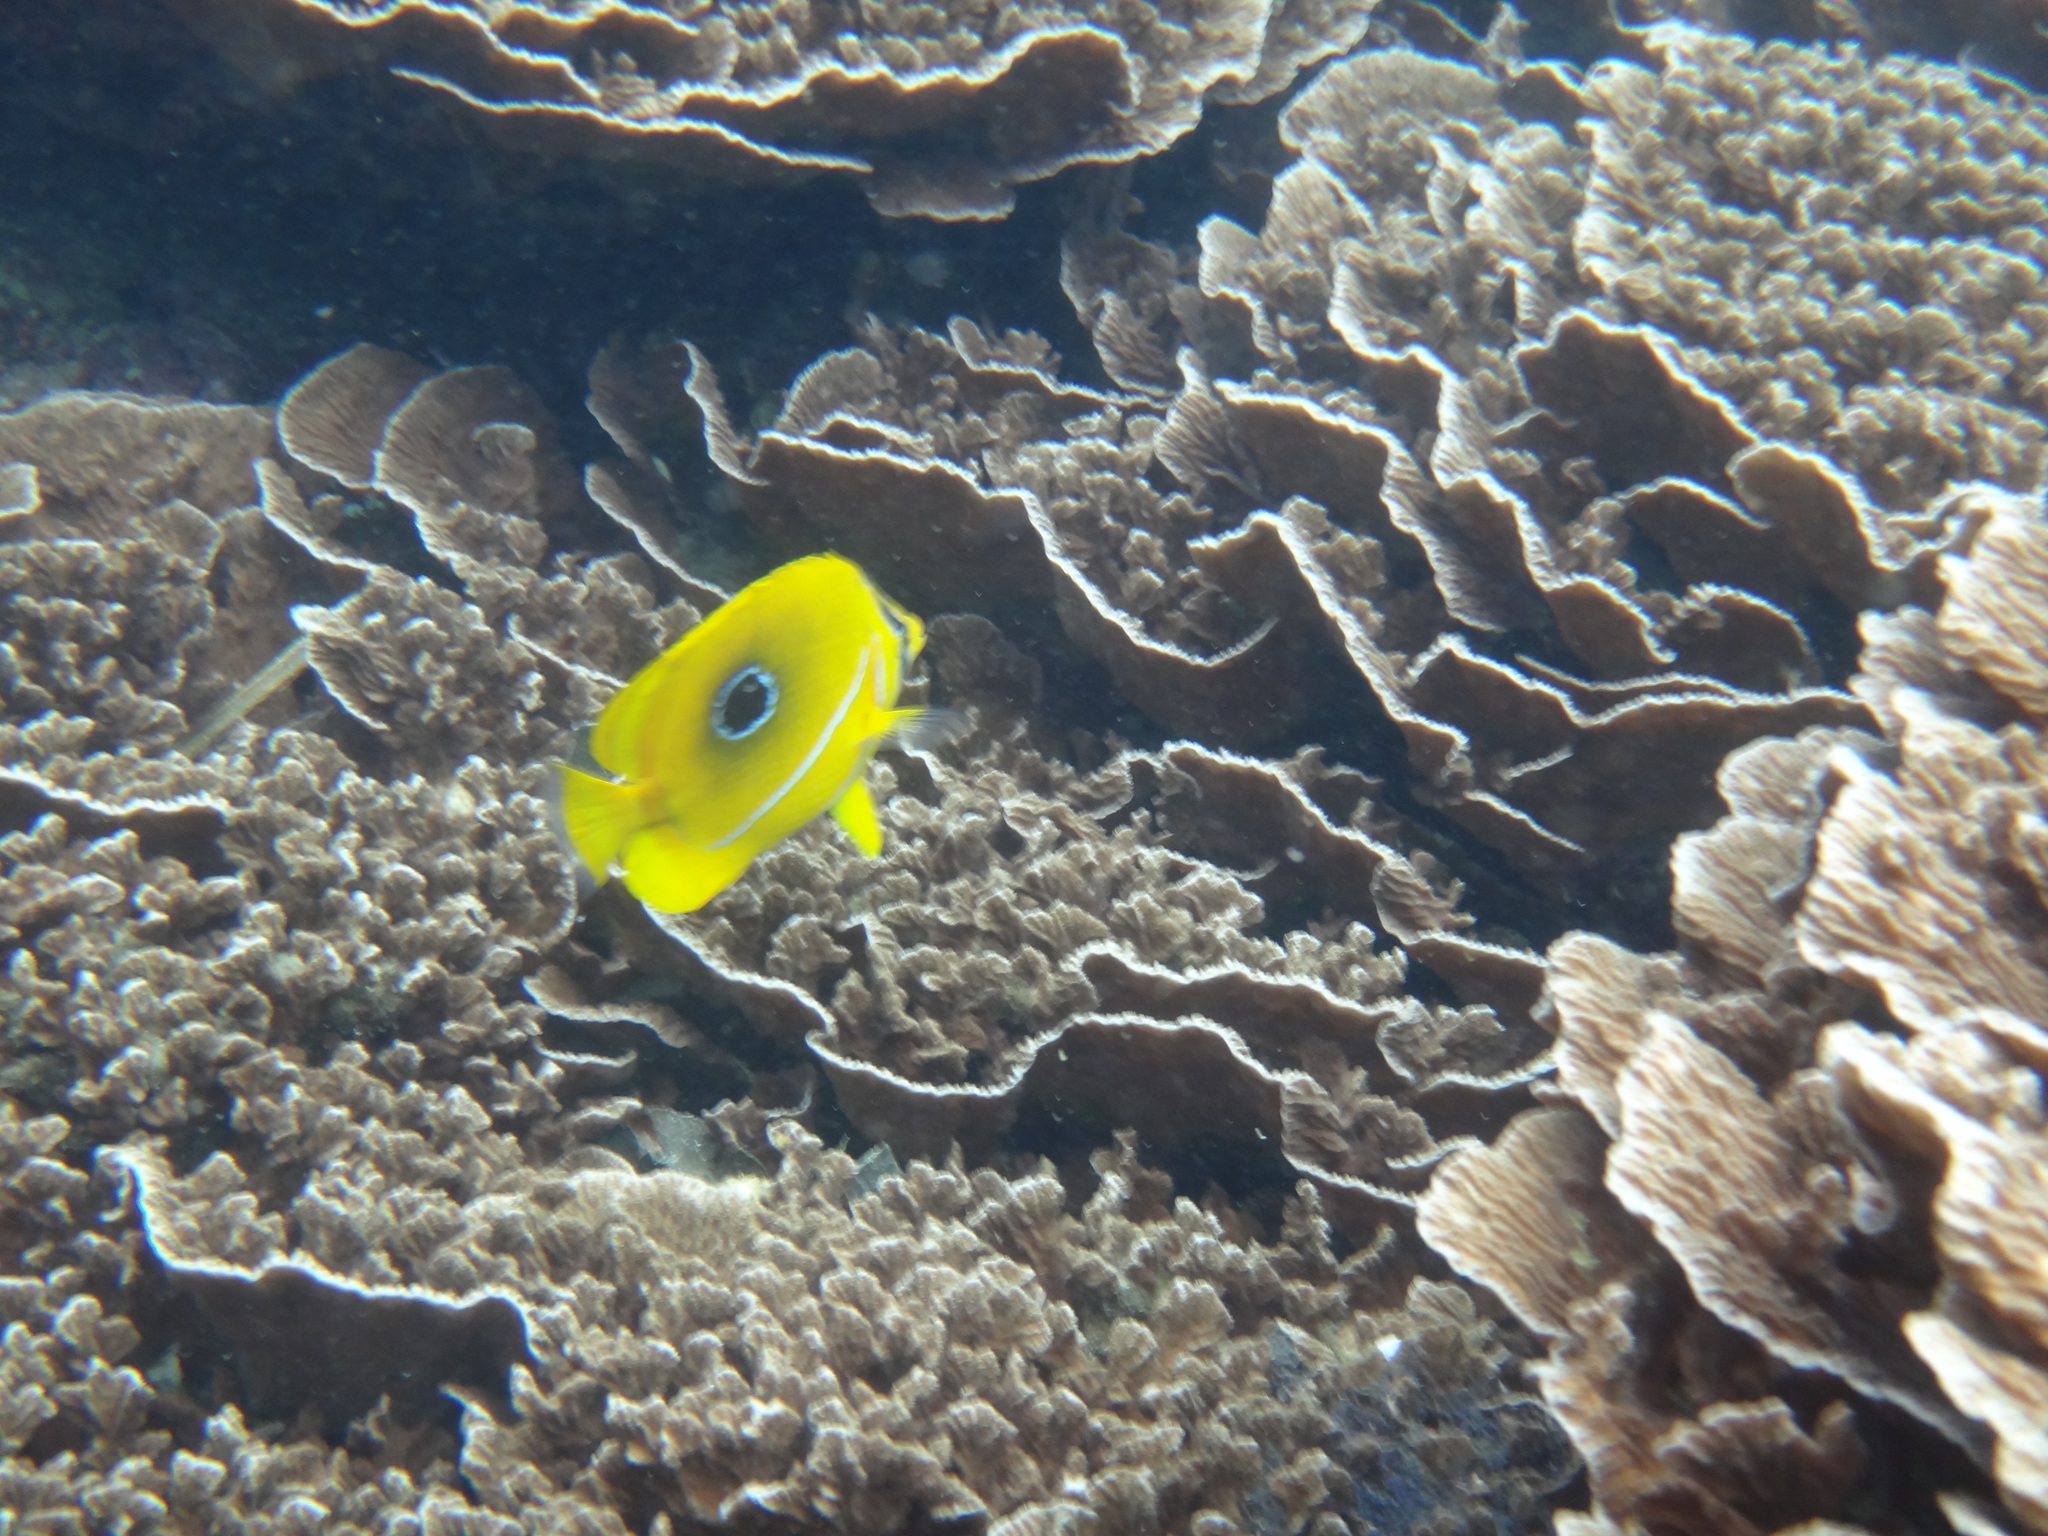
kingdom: Animalia
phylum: Chordata
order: Perciformes
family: Chaetodontidae
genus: Chaetodon
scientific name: Chaetodon bennetti
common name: Bennett's butterflyfish
